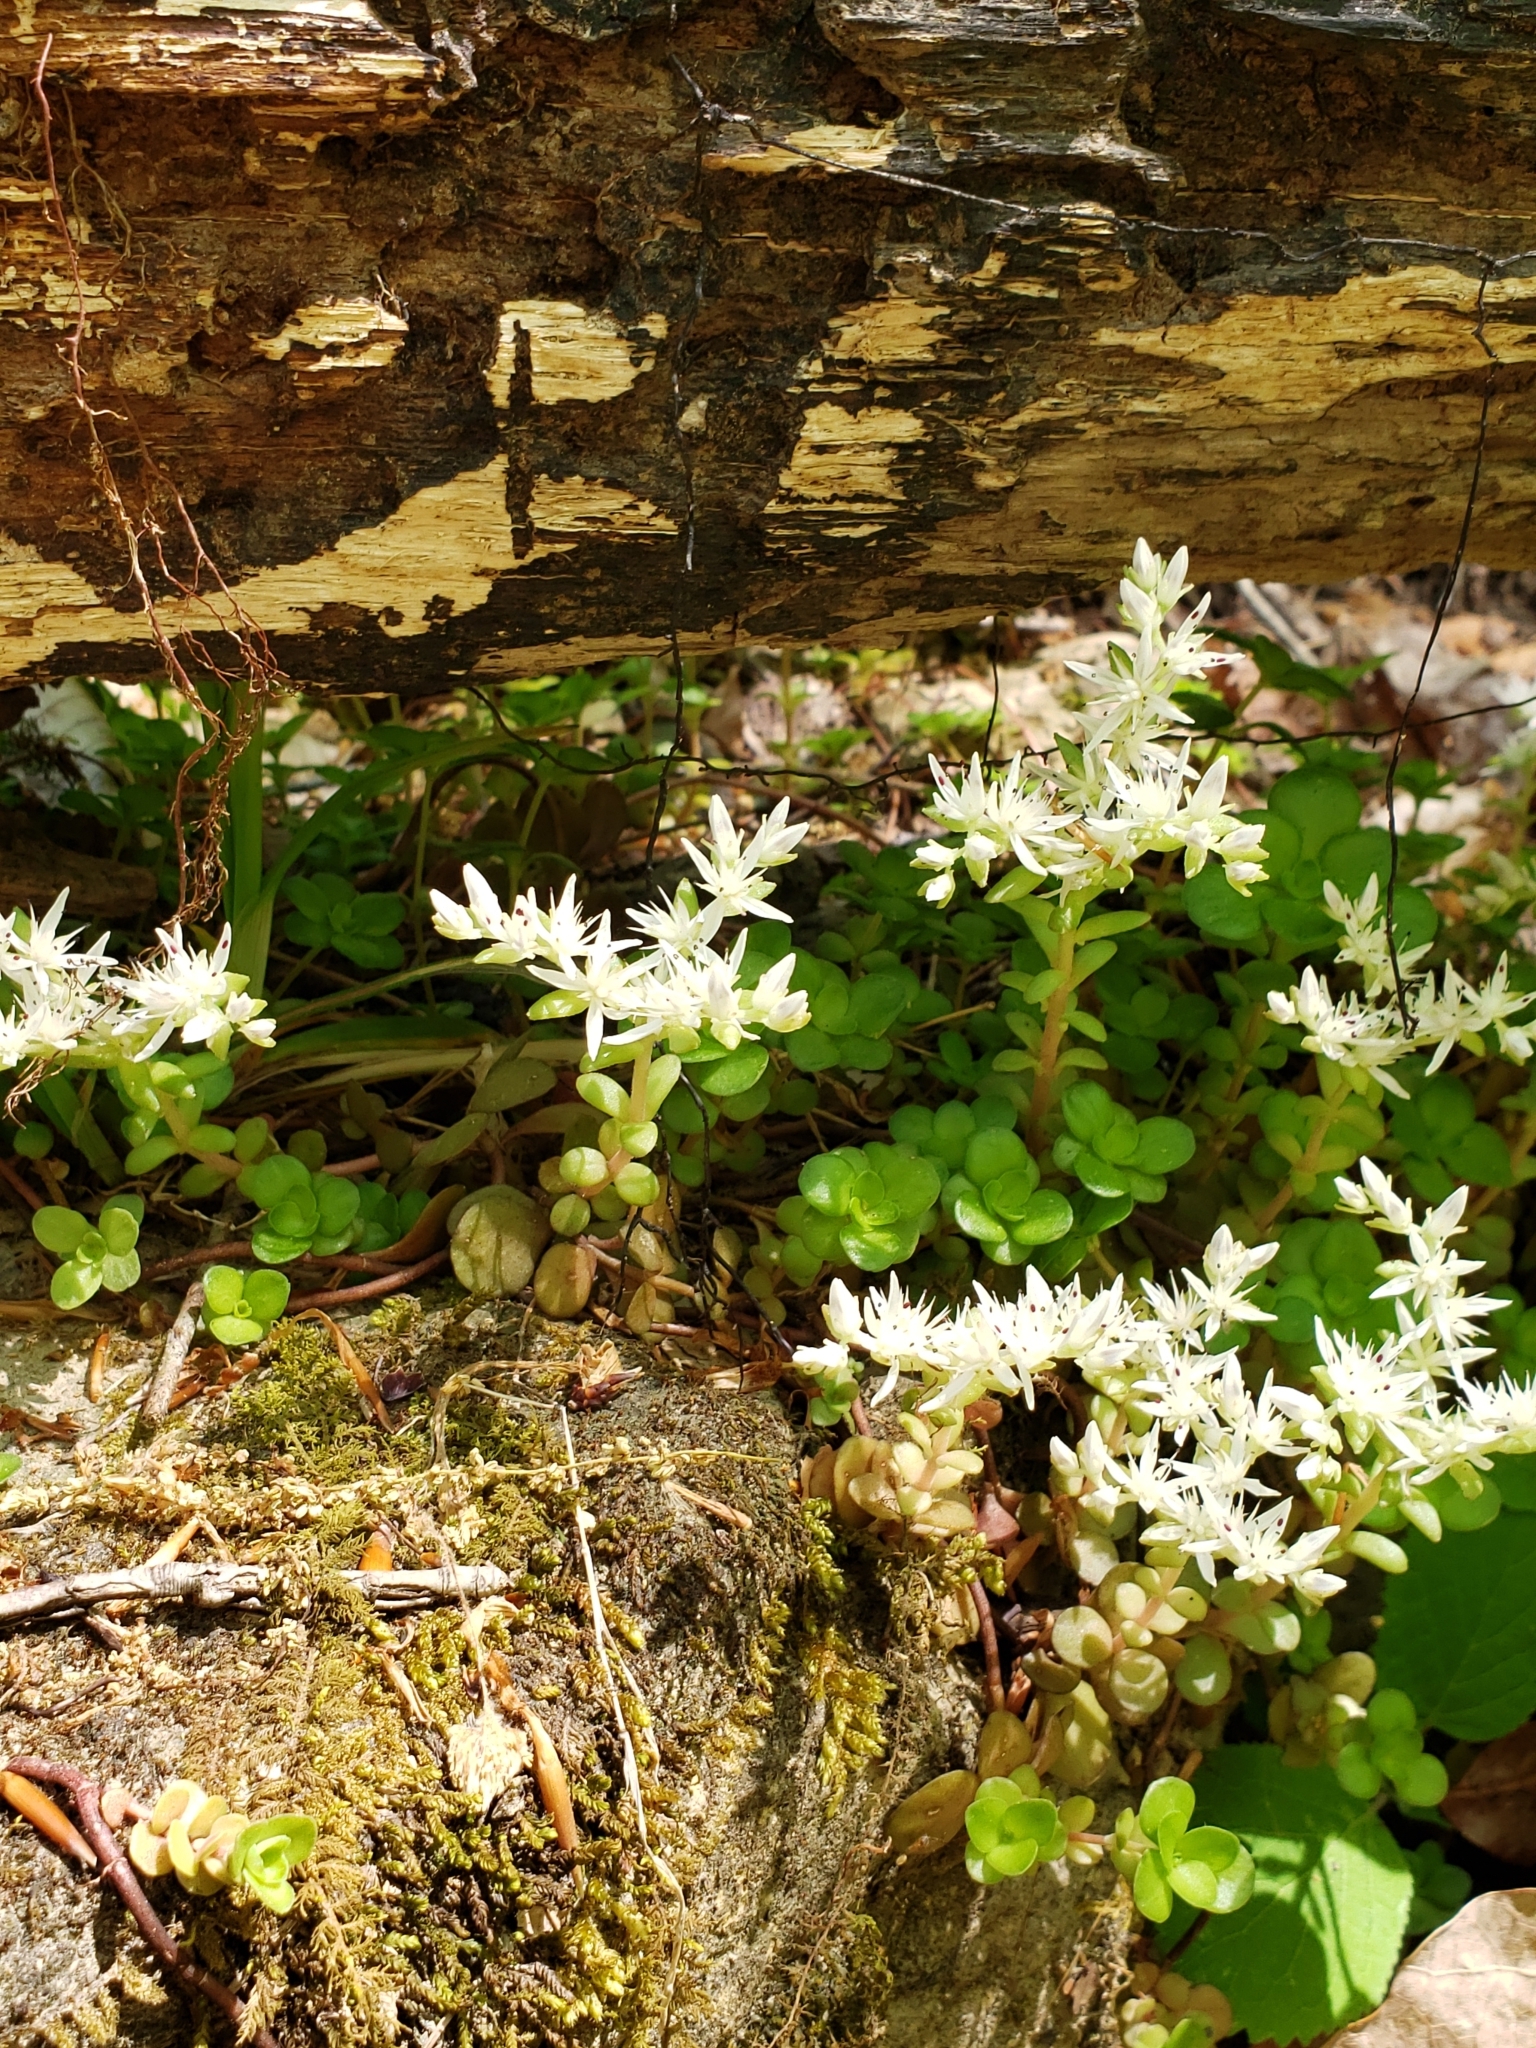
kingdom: Plantae
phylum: Tracheophyta
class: Magnoliopsida
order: Saxifragales
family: Crassulaceae
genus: Sedum
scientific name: Sedum ternatum
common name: Wild stonecrop
